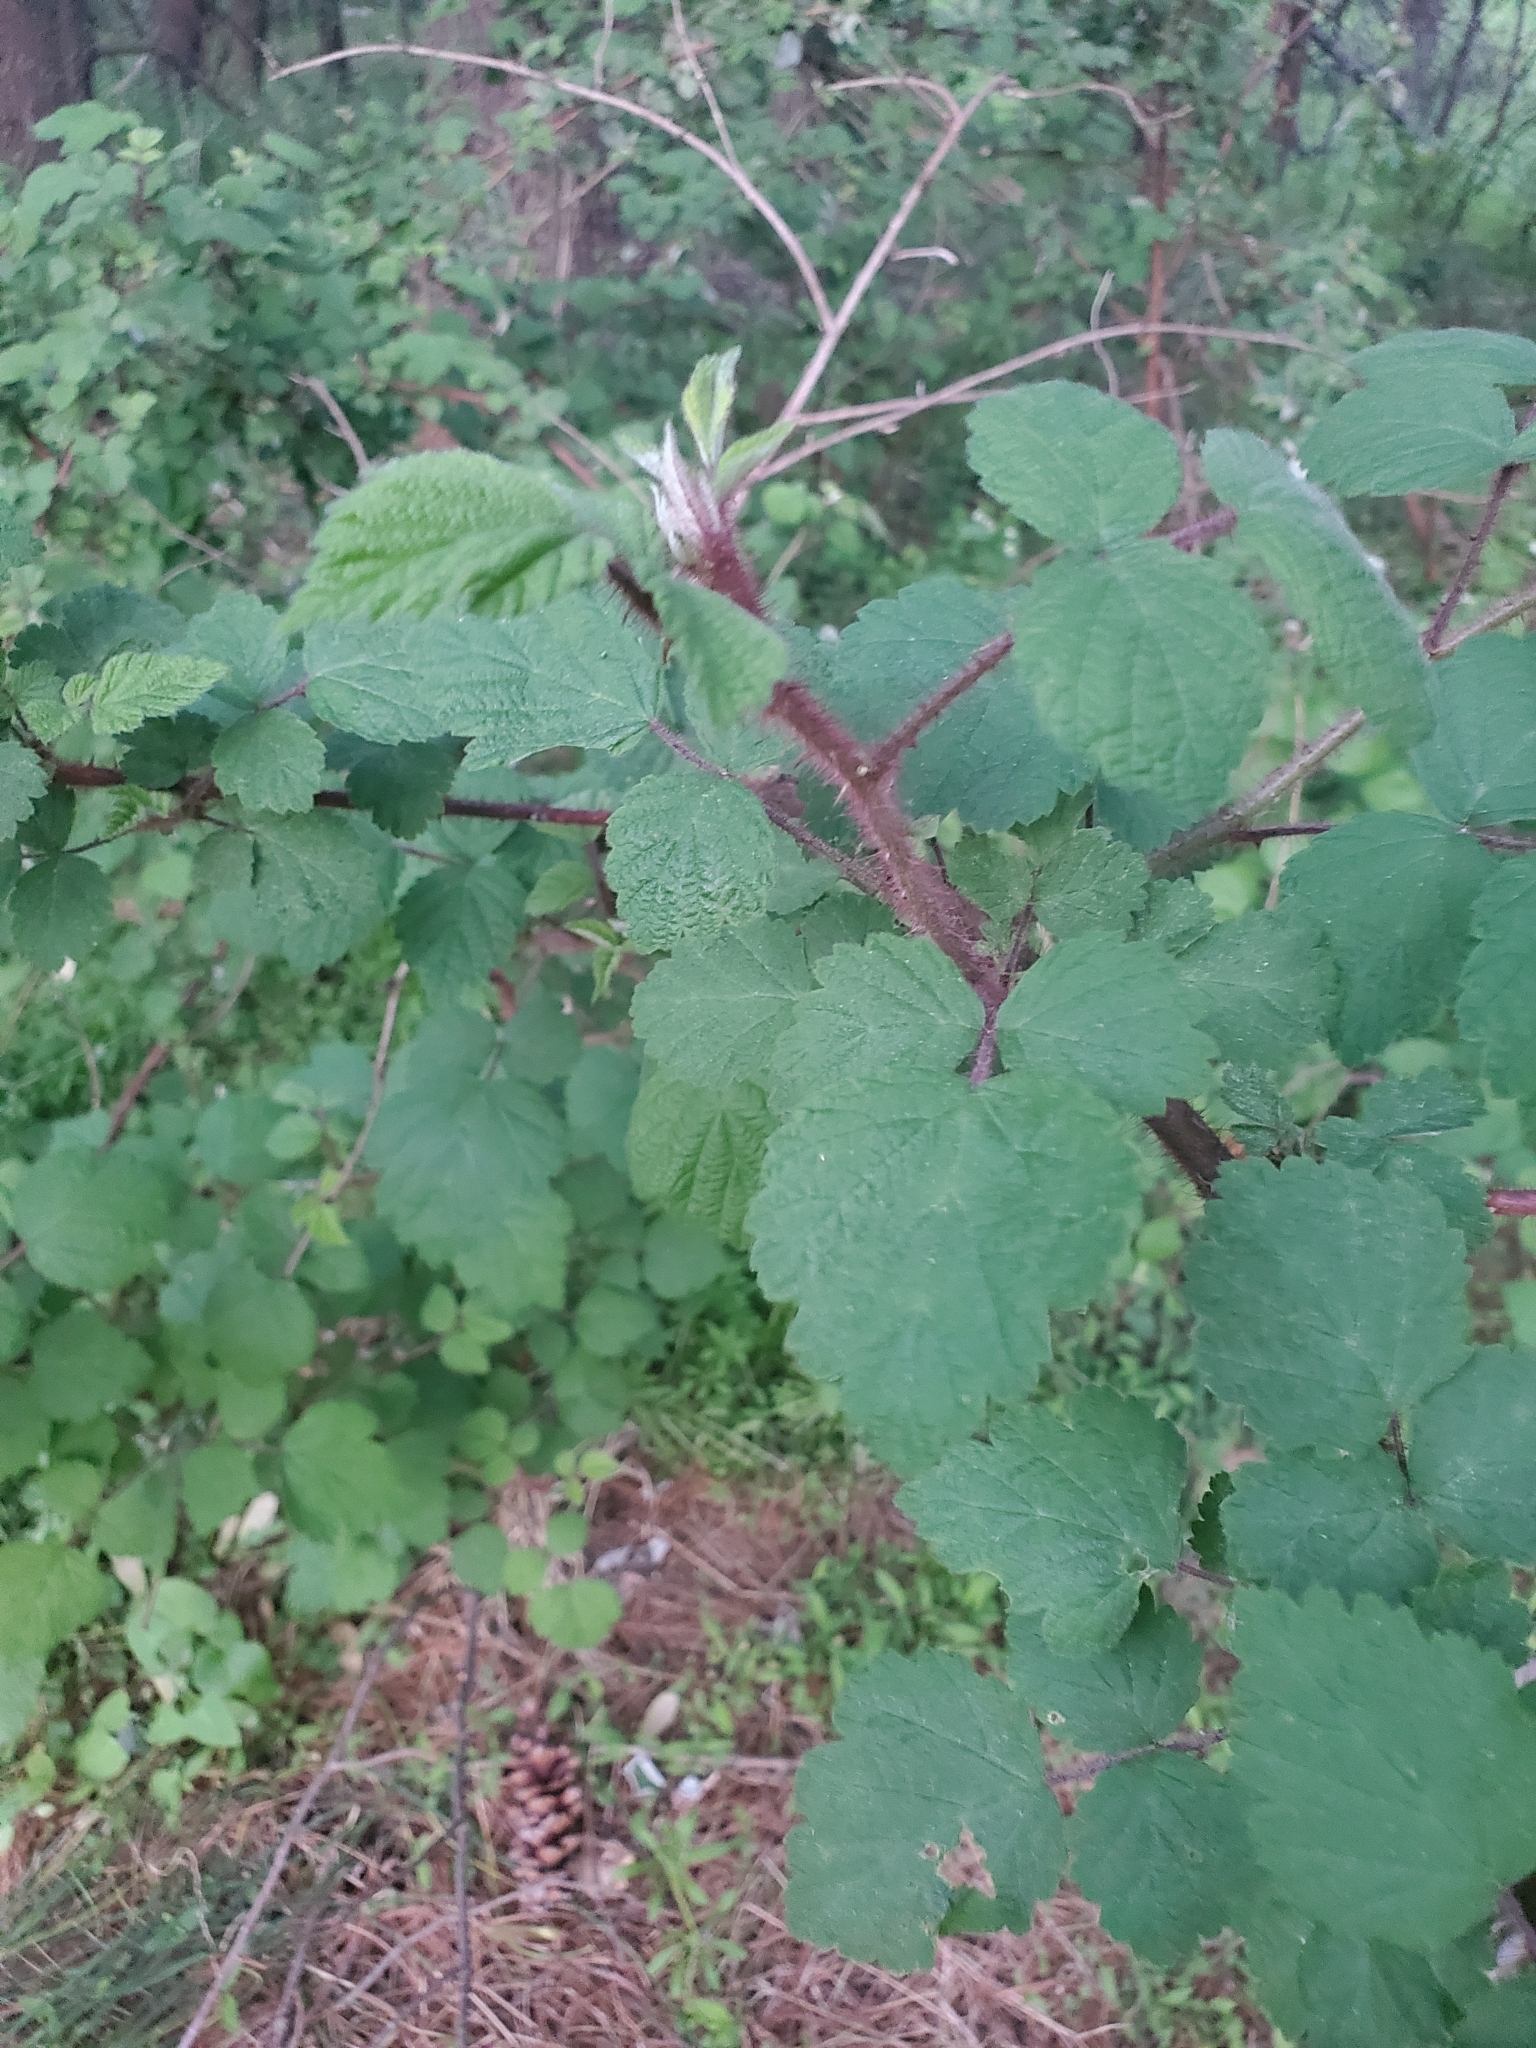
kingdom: Plantae
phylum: Tracheophyta
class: Magnoliopsida
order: Rosales
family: Rosaceae
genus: Rubus
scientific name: Rubus phoenicolasius
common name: Japanese wineberry
